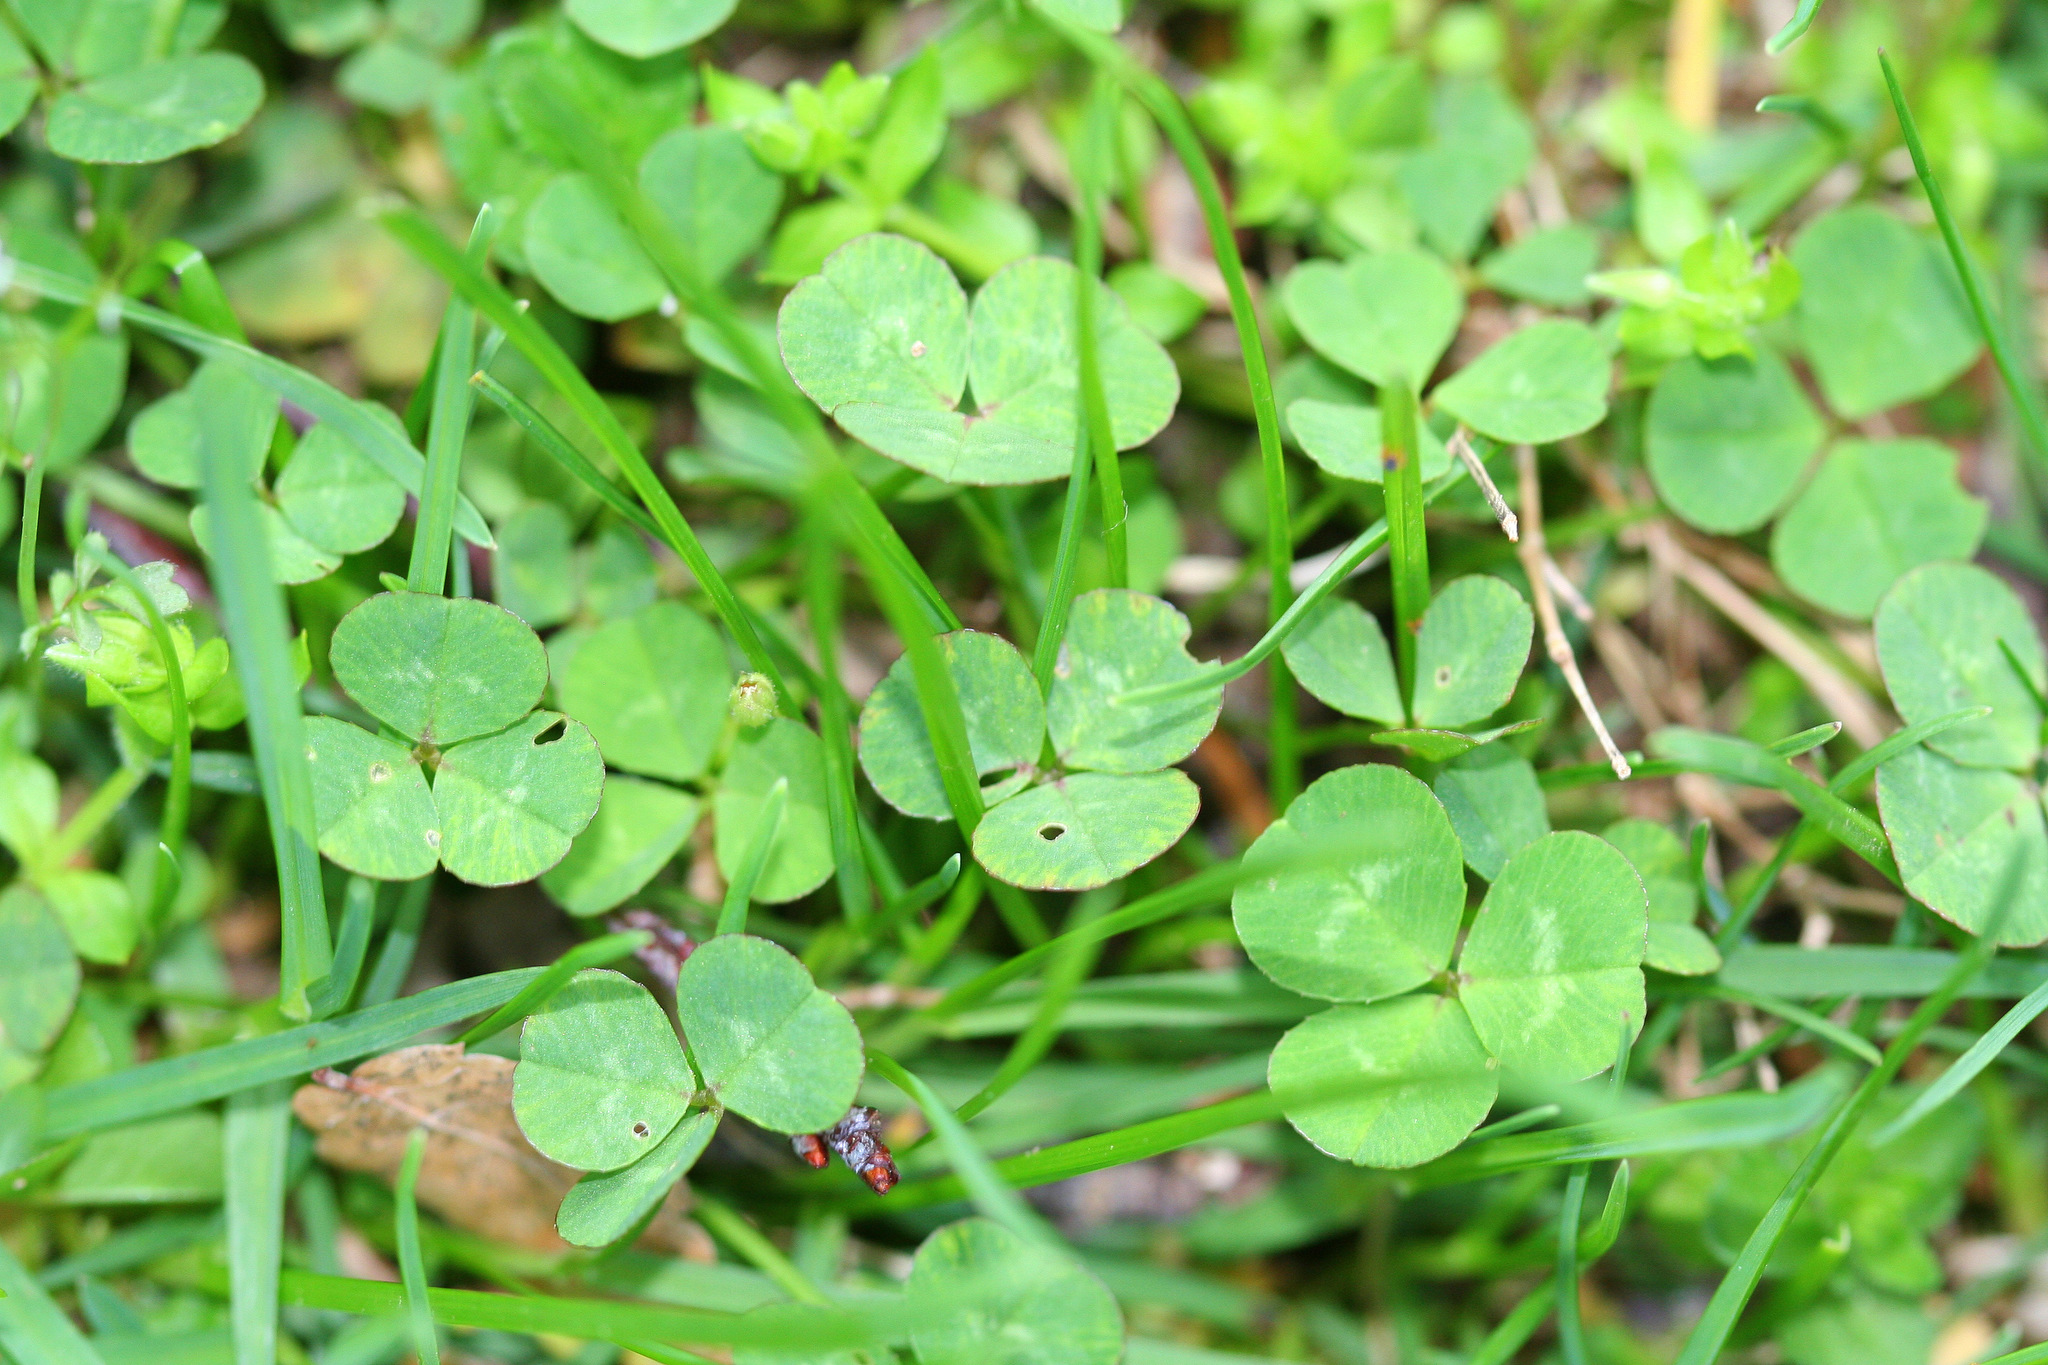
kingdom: Plantae
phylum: Tracheophyta
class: Magnoliopsida
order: Fabales
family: Fabaceae
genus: Trifolium
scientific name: Trifolium repens
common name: White clover
